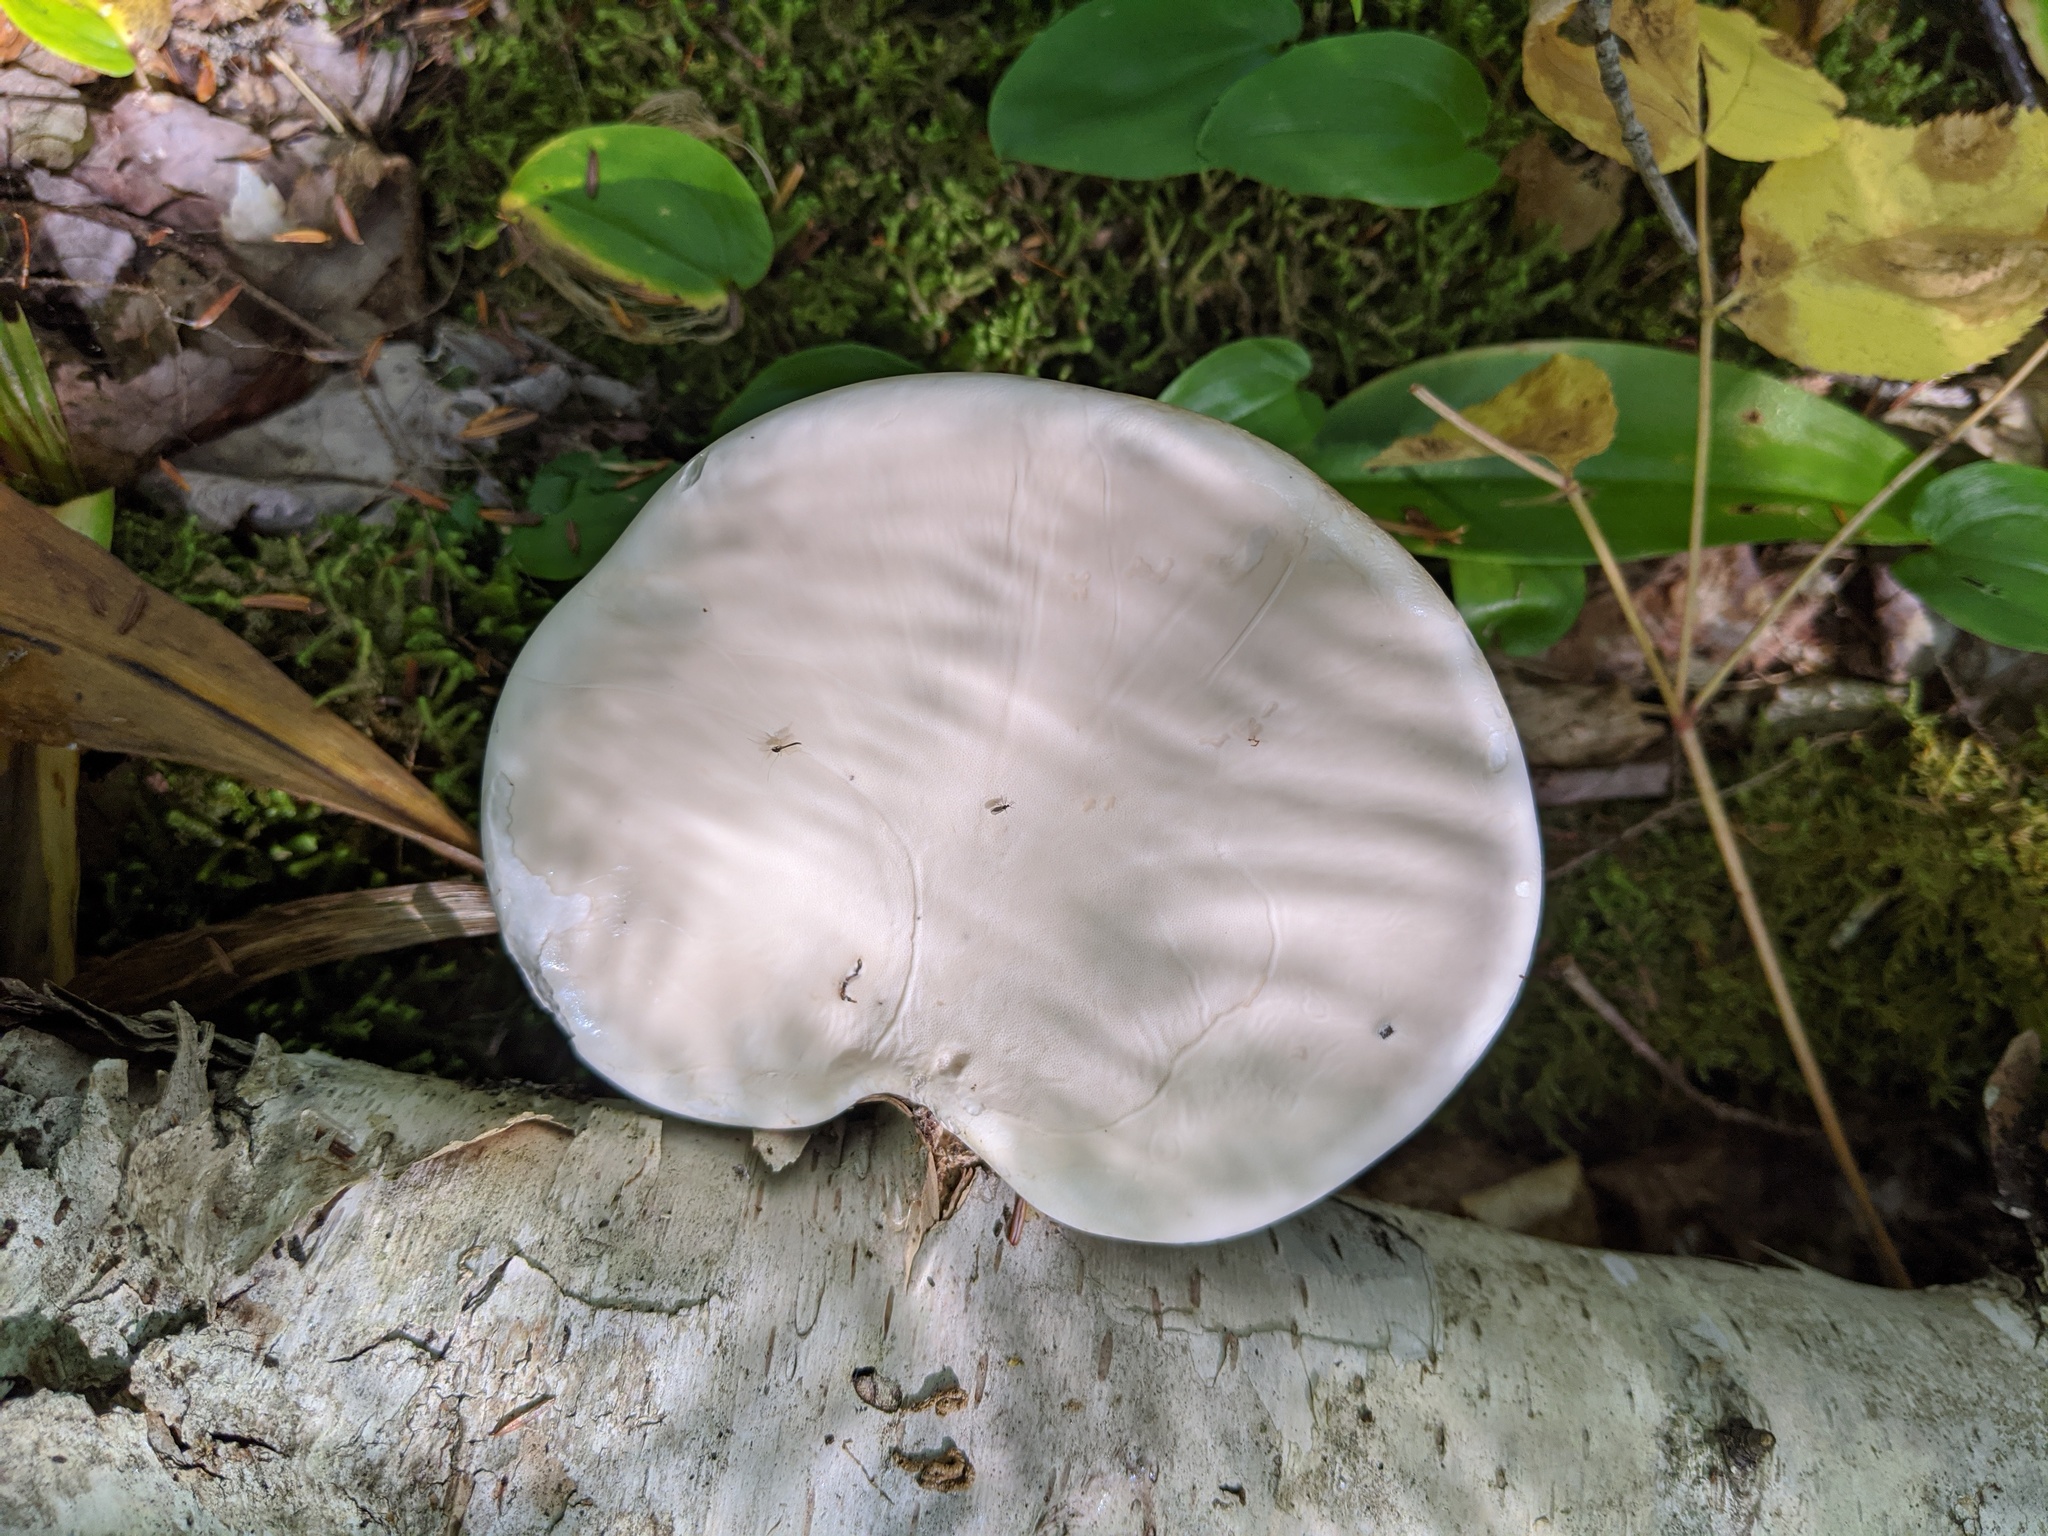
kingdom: Fungi
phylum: Basidiomycota
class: Agaricomycetes
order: Polyporales
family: Fomitopsidaceae
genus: Fomitopsis
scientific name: Fomitopsis betulina
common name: Birch polypore
